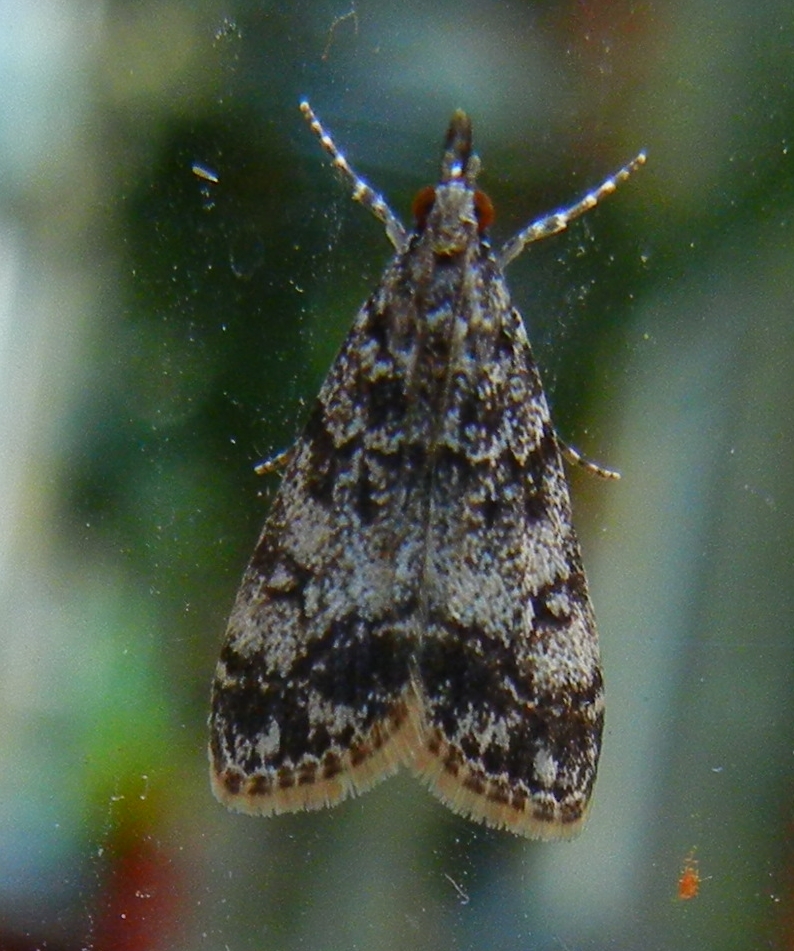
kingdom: Animalia
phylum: Arthropoda
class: Insecta
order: Lepidoptera
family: Crambidae
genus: Eudonia
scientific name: Eudonia lacustrata
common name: Little grey
